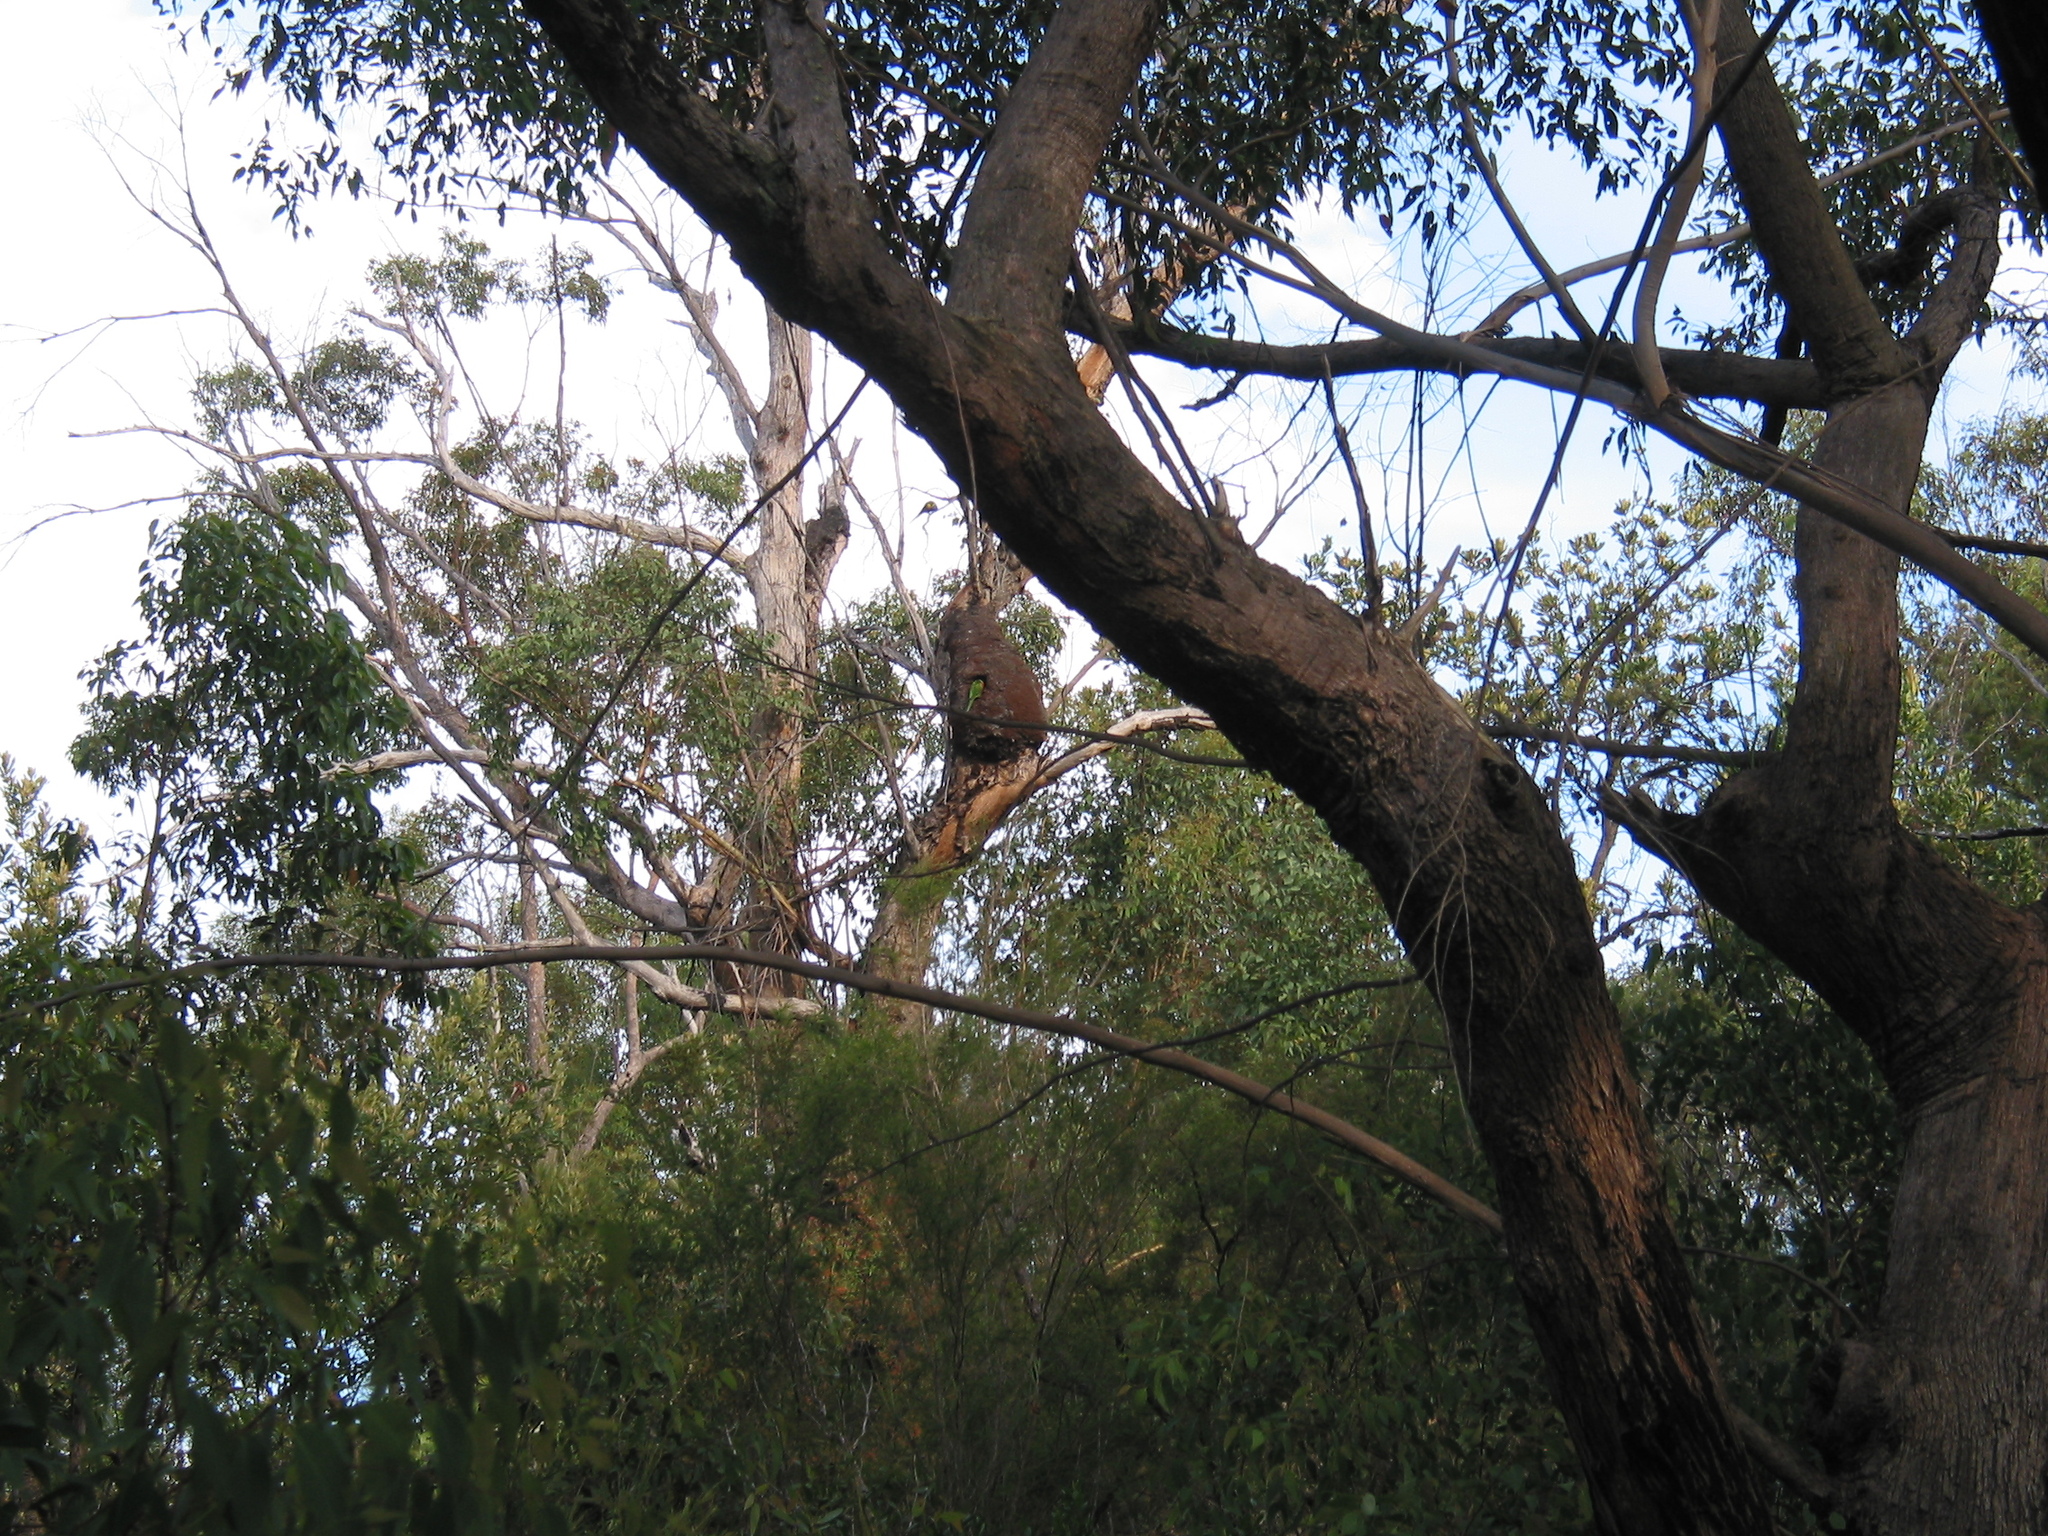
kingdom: Animalia
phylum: Chordata
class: Aves
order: Psittaciformes
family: Psittacidae
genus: Trichoglossus
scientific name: Trichoglossus haematodus
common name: Coconut lorikeet
